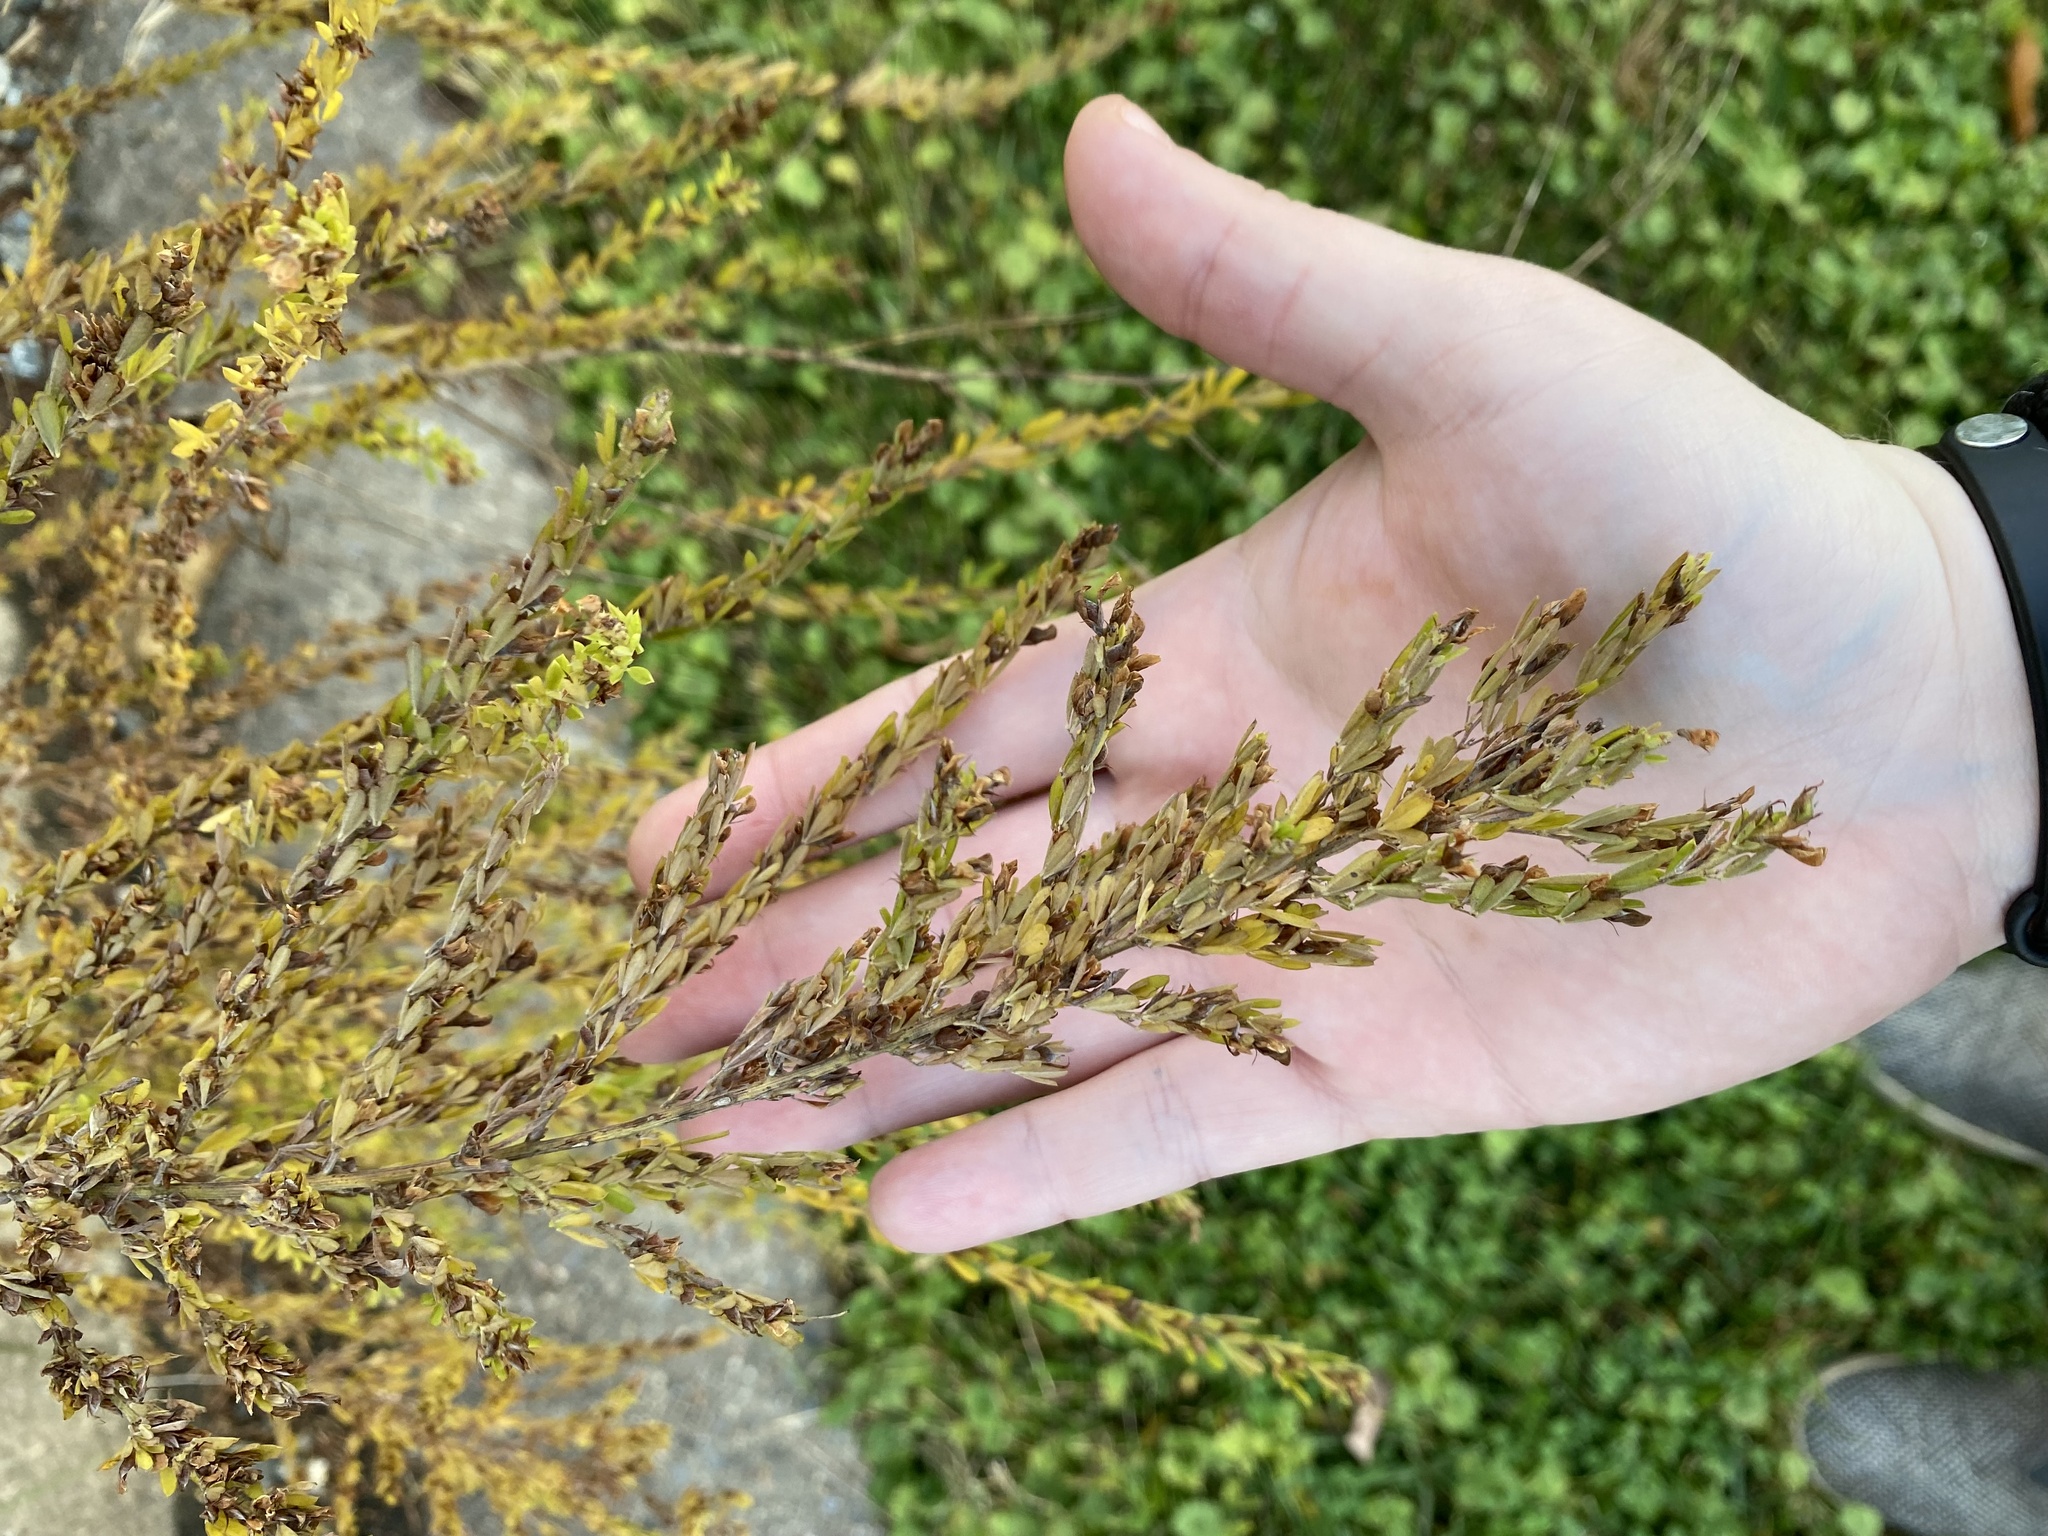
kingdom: Plantae
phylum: Tracheophyta
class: Magnoliopsida
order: Fabales
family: Fabaceae
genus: Lespedeza
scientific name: Lespedeza cuneata
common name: Chinese bush-clover
